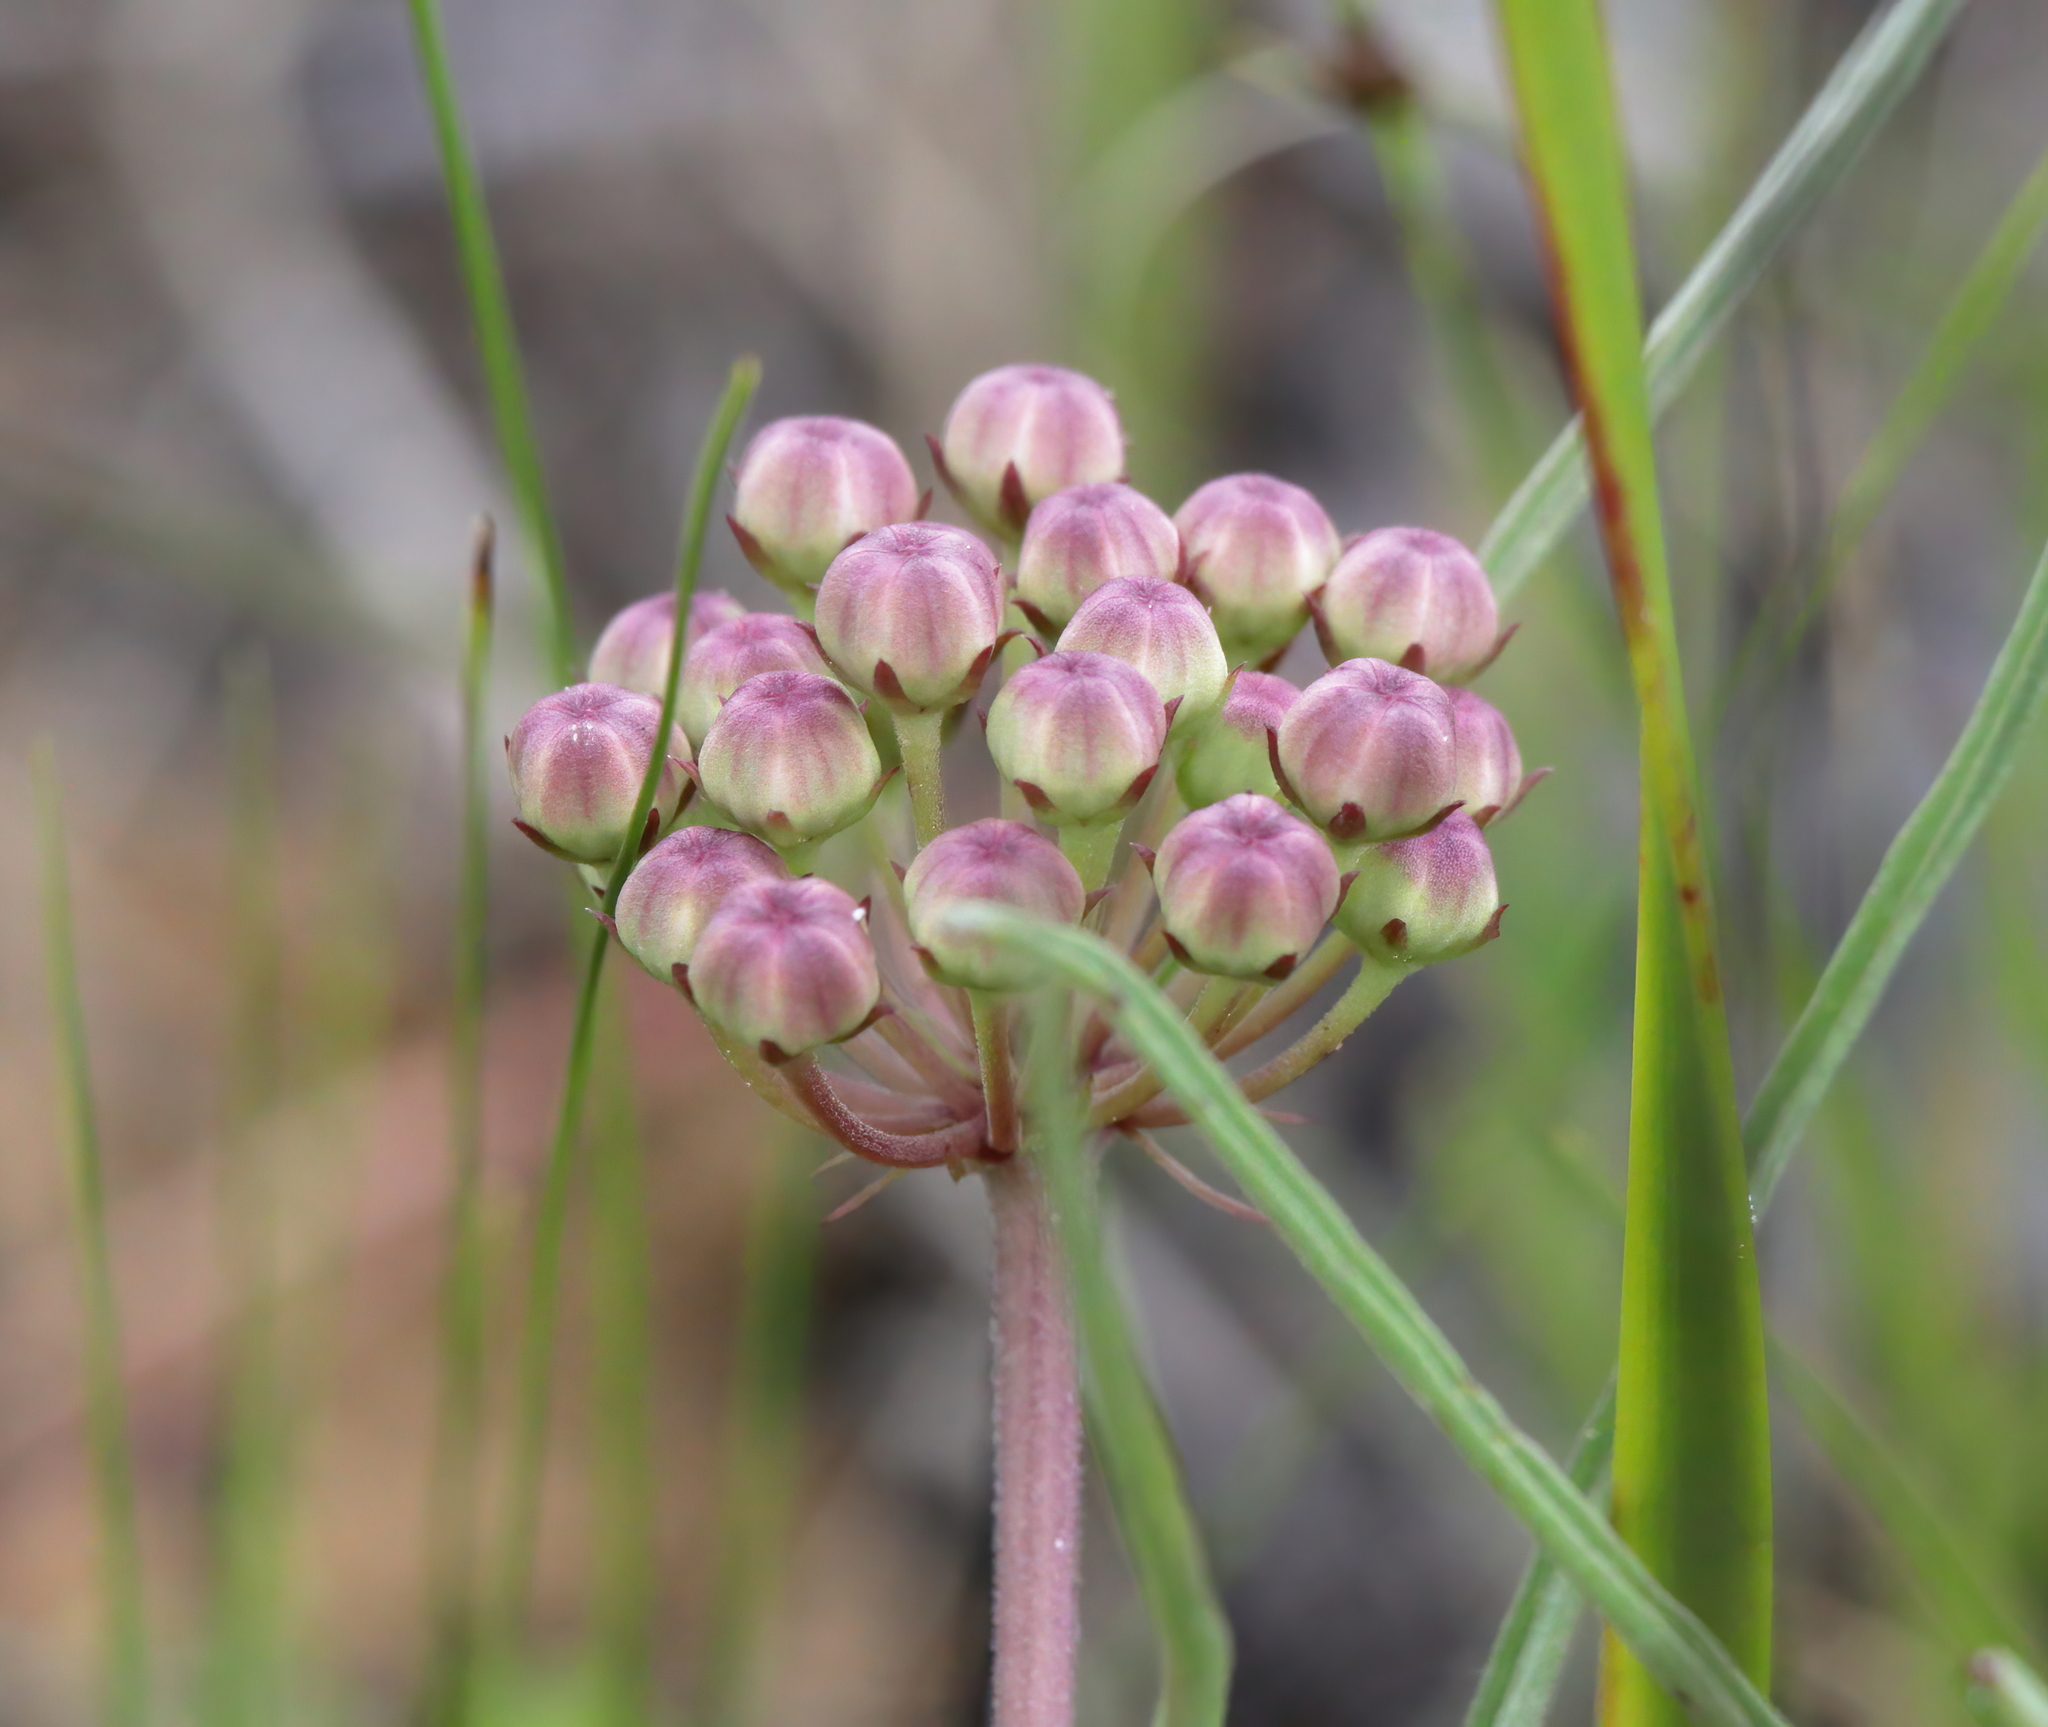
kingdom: Plantae
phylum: Tracheophyta
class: Magnoliopsida
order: Gentianales
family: Apocynaceae
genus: Asclepias
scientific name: Asclepias michauxii
